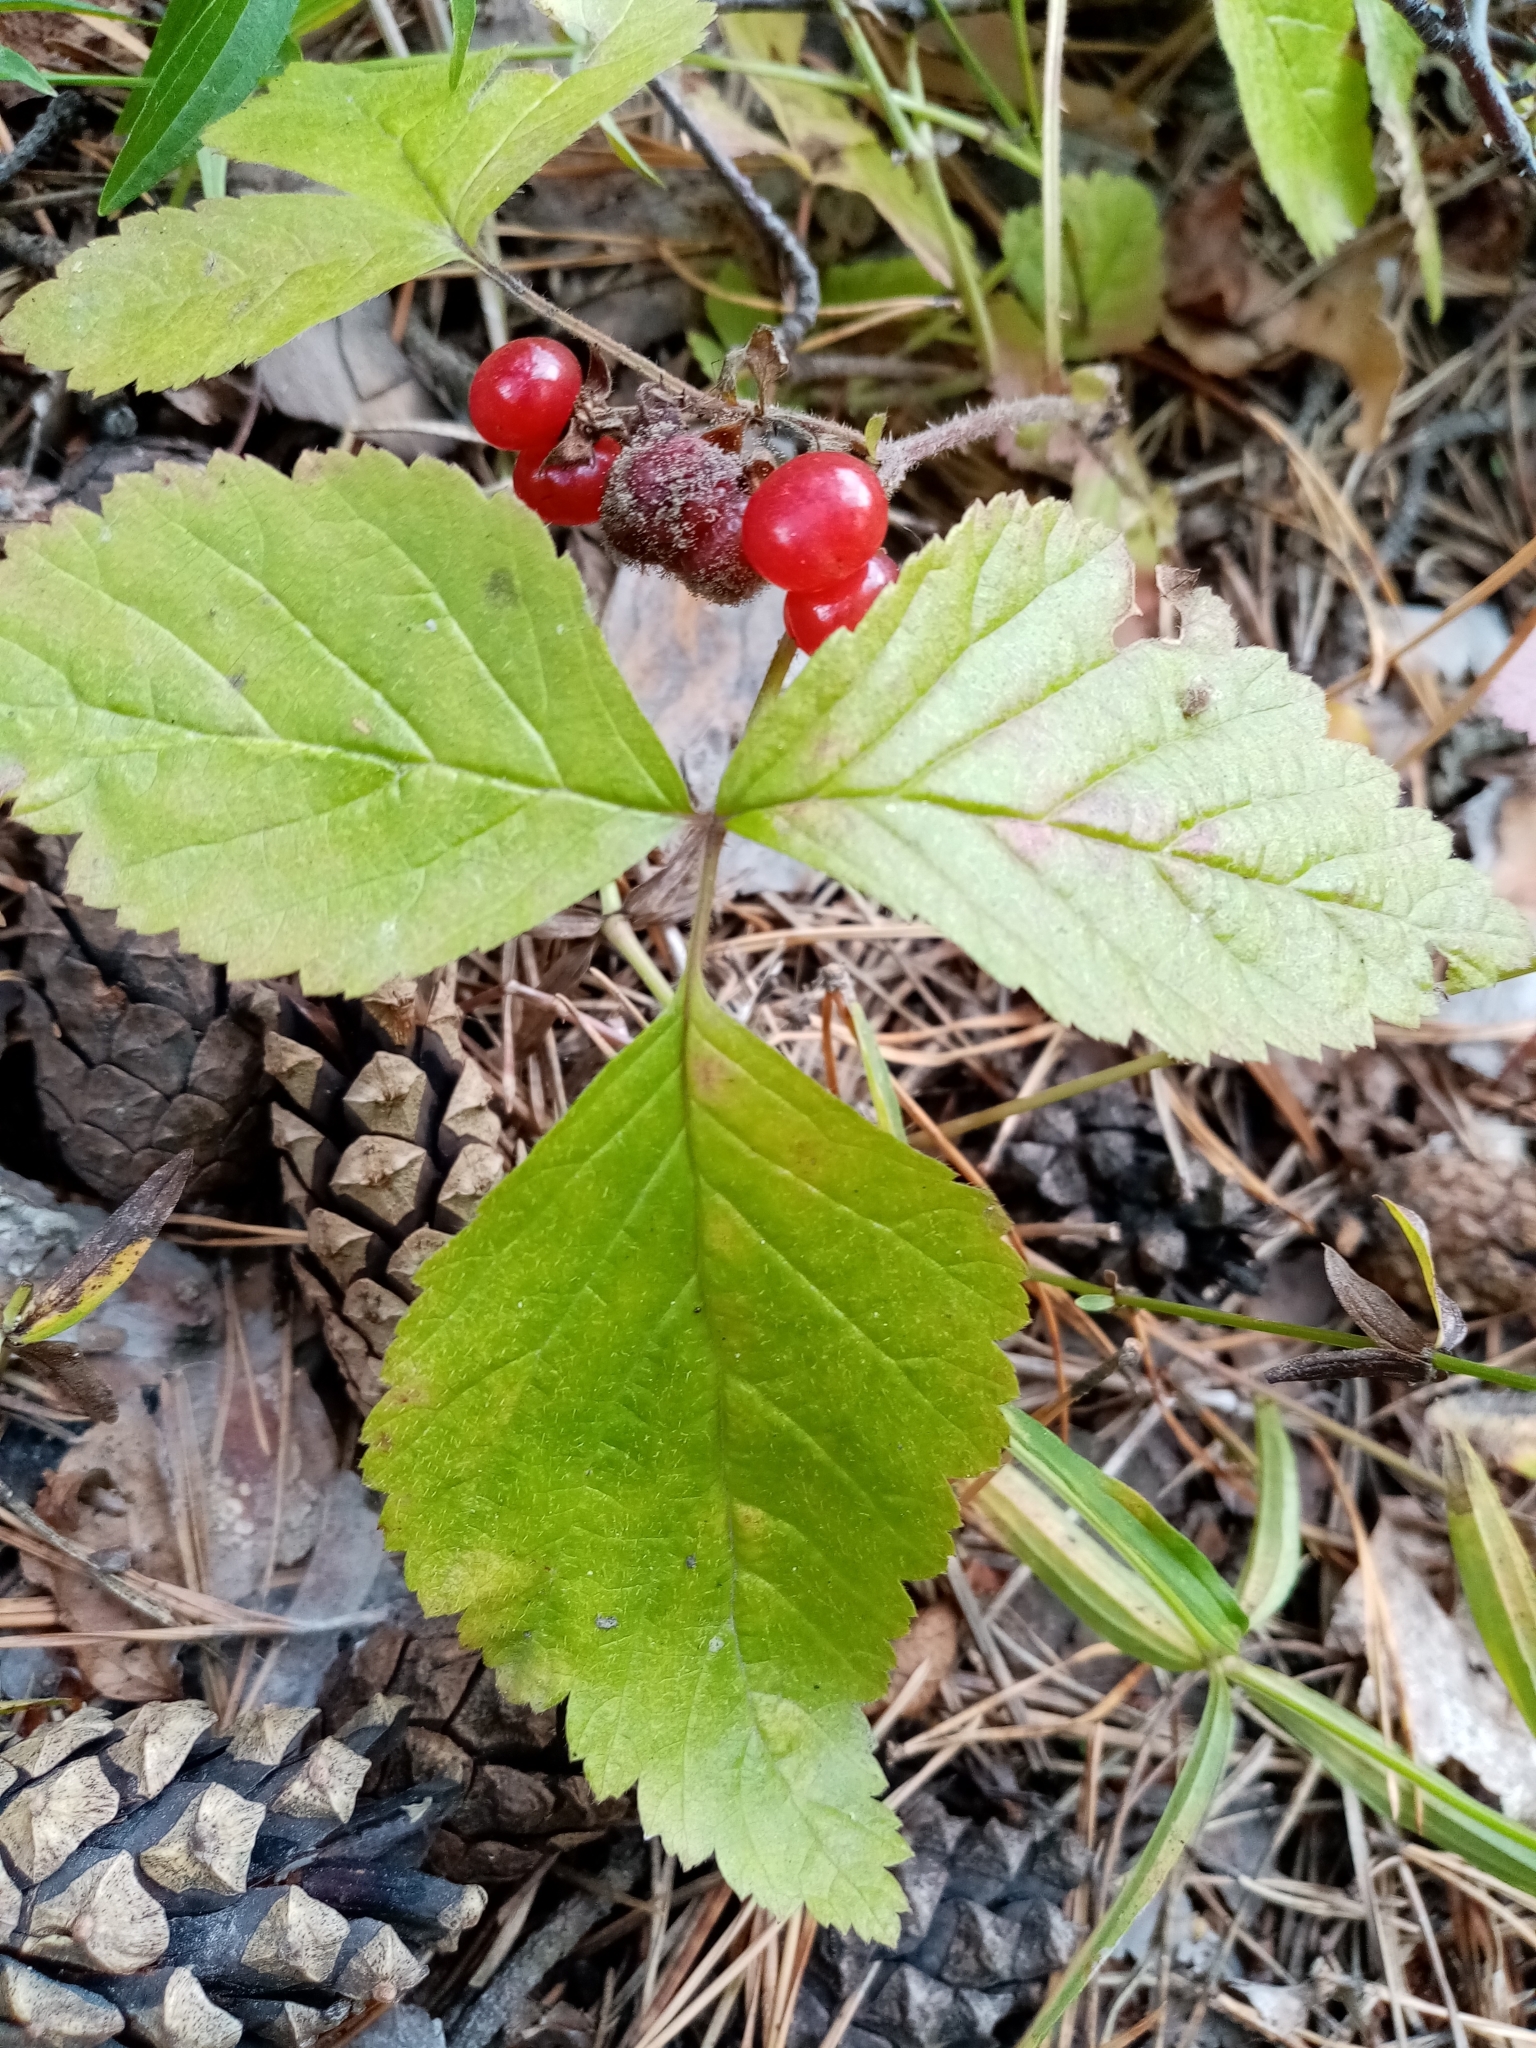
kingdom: Plantae
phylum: Tracheophyta
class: Magnoliopsida
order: Rosales
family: Rosaceae
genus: Rubus
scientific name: Rubus saxatilis
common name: Stone bramble
